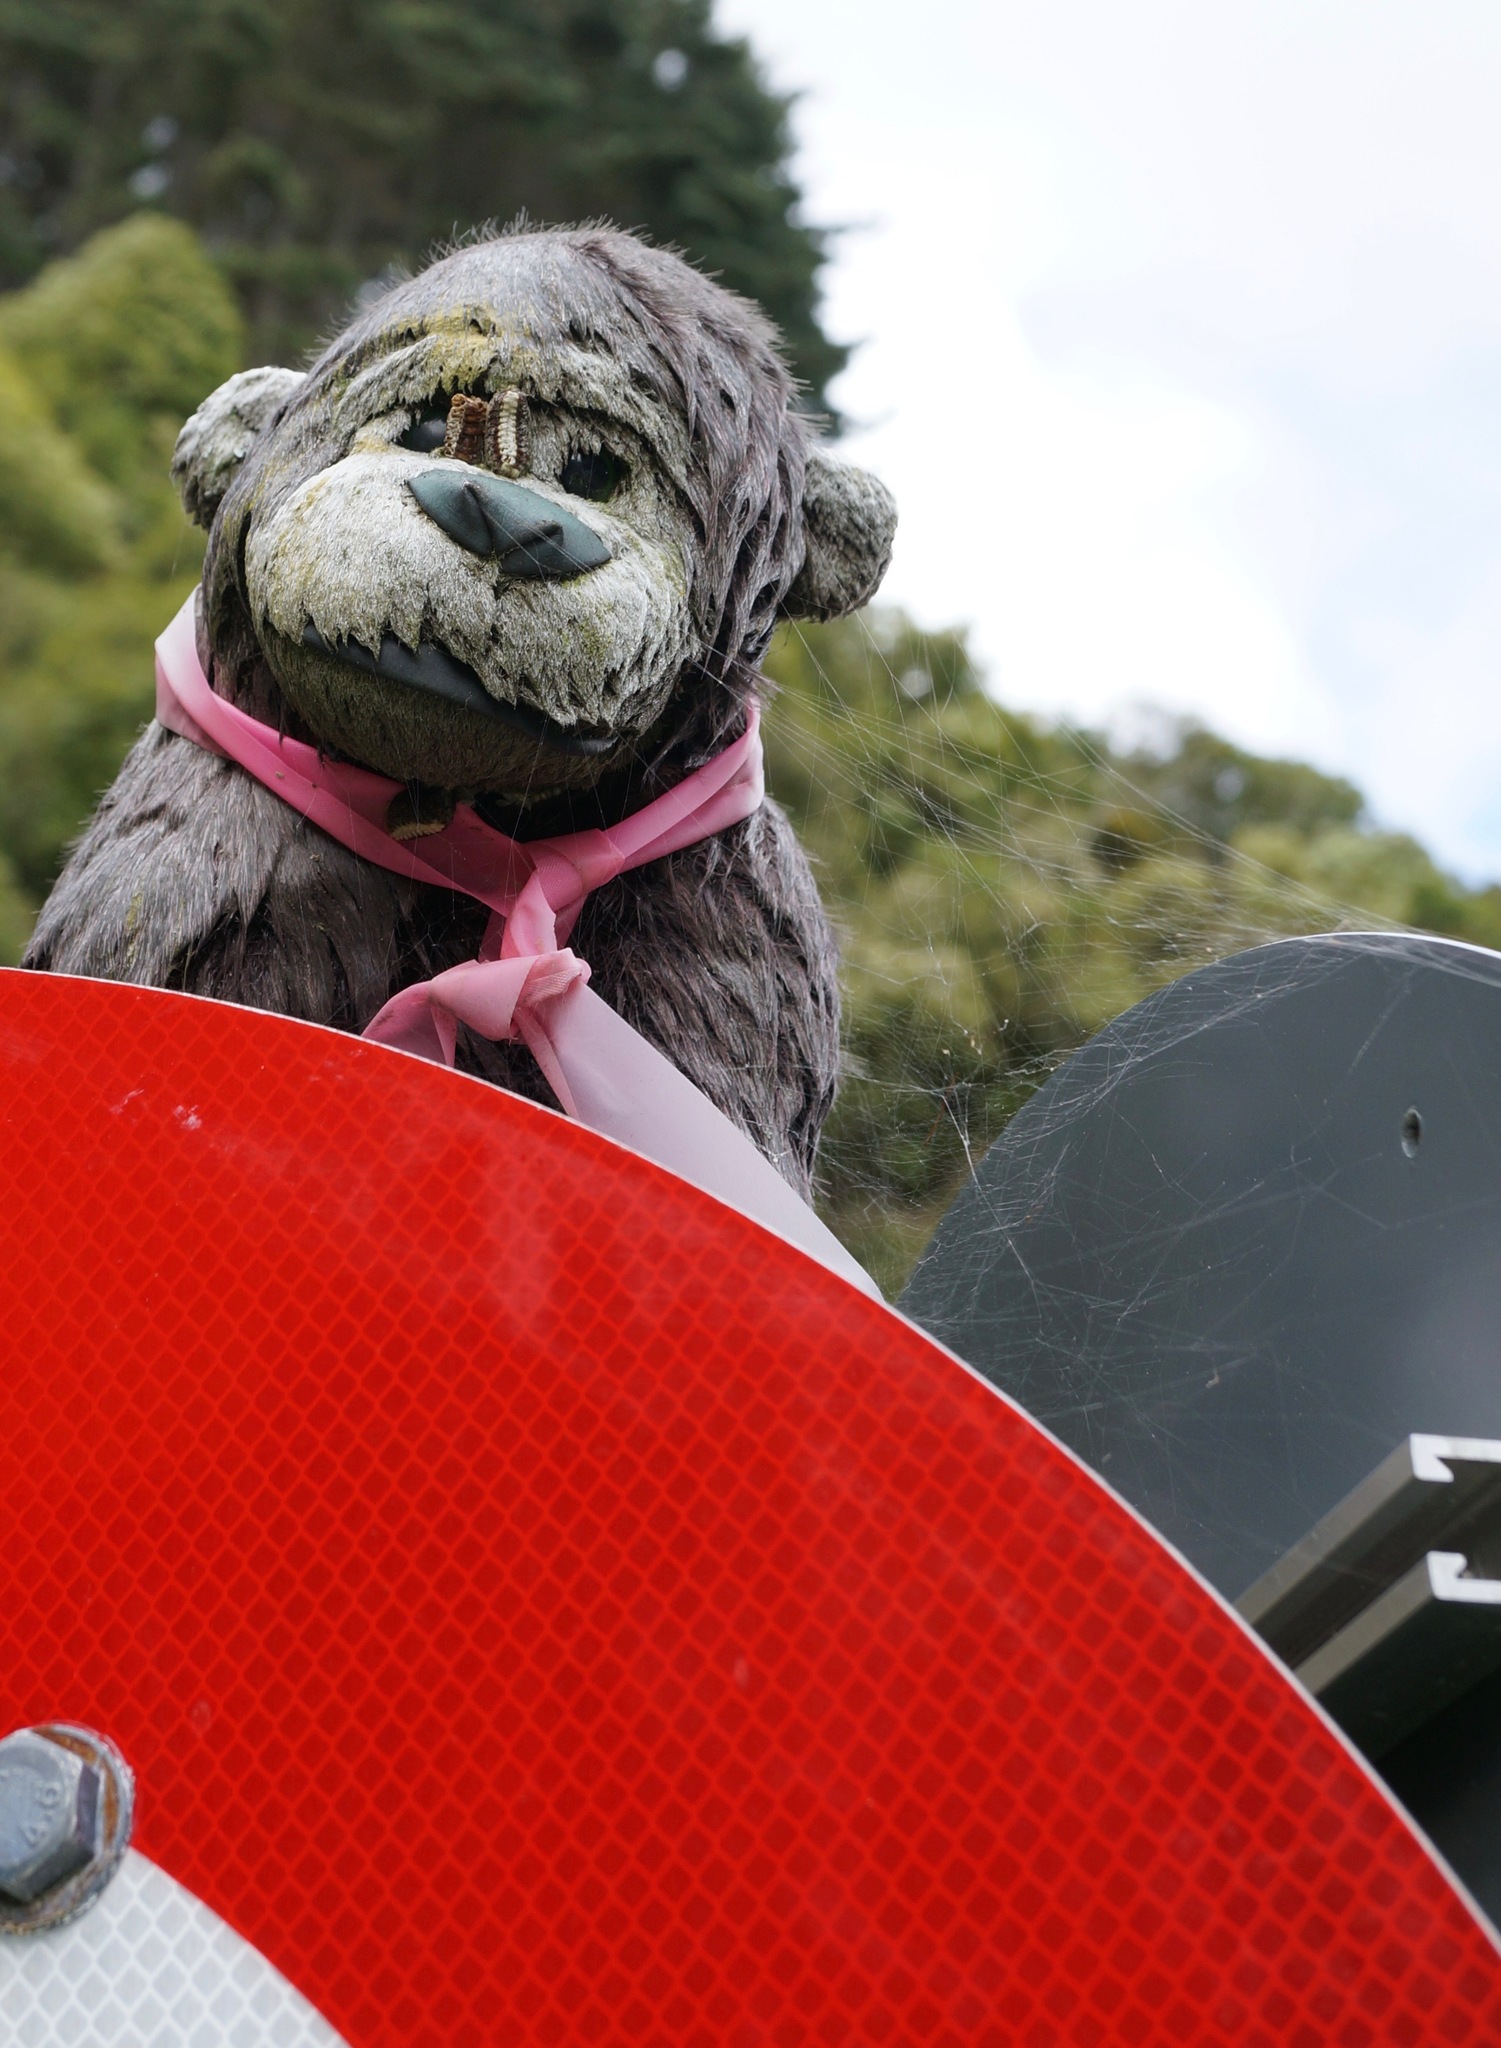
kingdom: Animalia
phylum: Arthropoda
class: Insecta
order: Mantodea
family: Mantidae
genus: Orthodera
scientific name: Orthodera novaezealandiae
